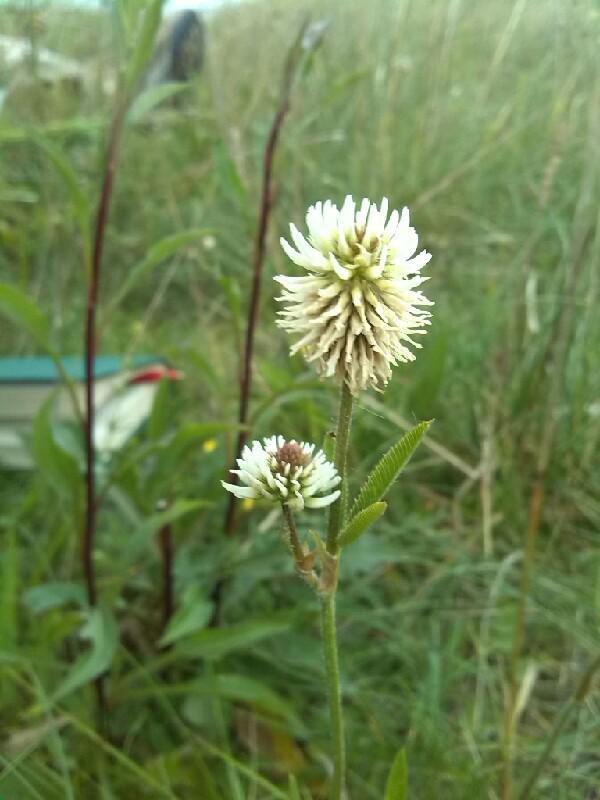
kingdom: Plantae
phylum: Tracheophyta
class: Magnoliopsida
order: Fabales
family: Fabaceae
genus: Trifolium
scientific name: Trifolium montanum
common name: Mountain clover
